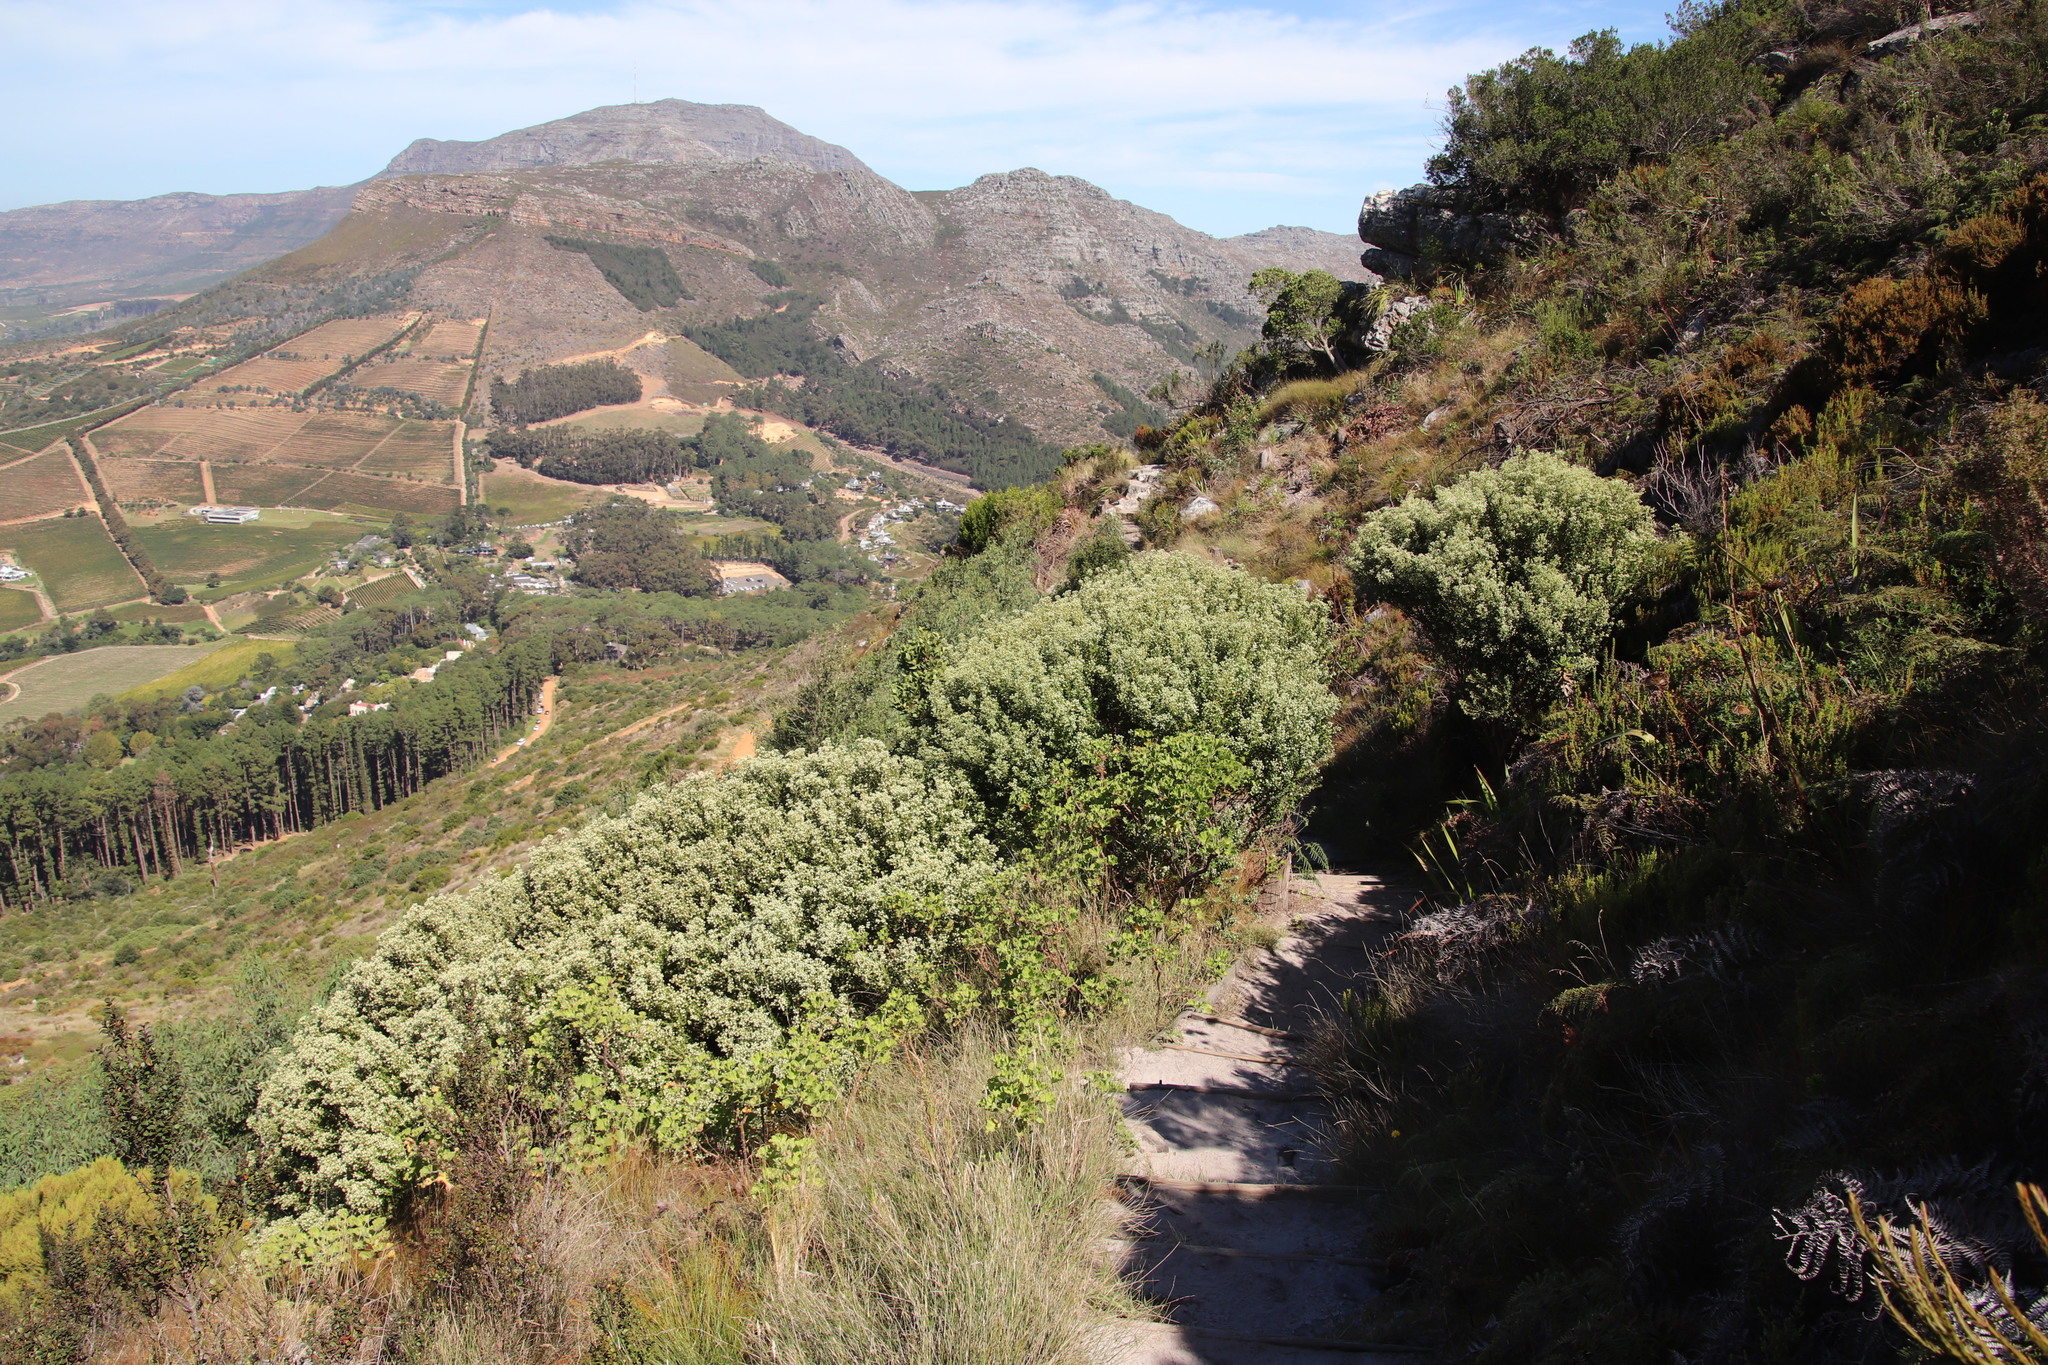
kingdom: Plantae
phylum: Tracheophyta
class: Magnoliopsida
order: Rosales
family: Rhamnaceae
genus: Phylica
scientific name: Phylica buxifolia
